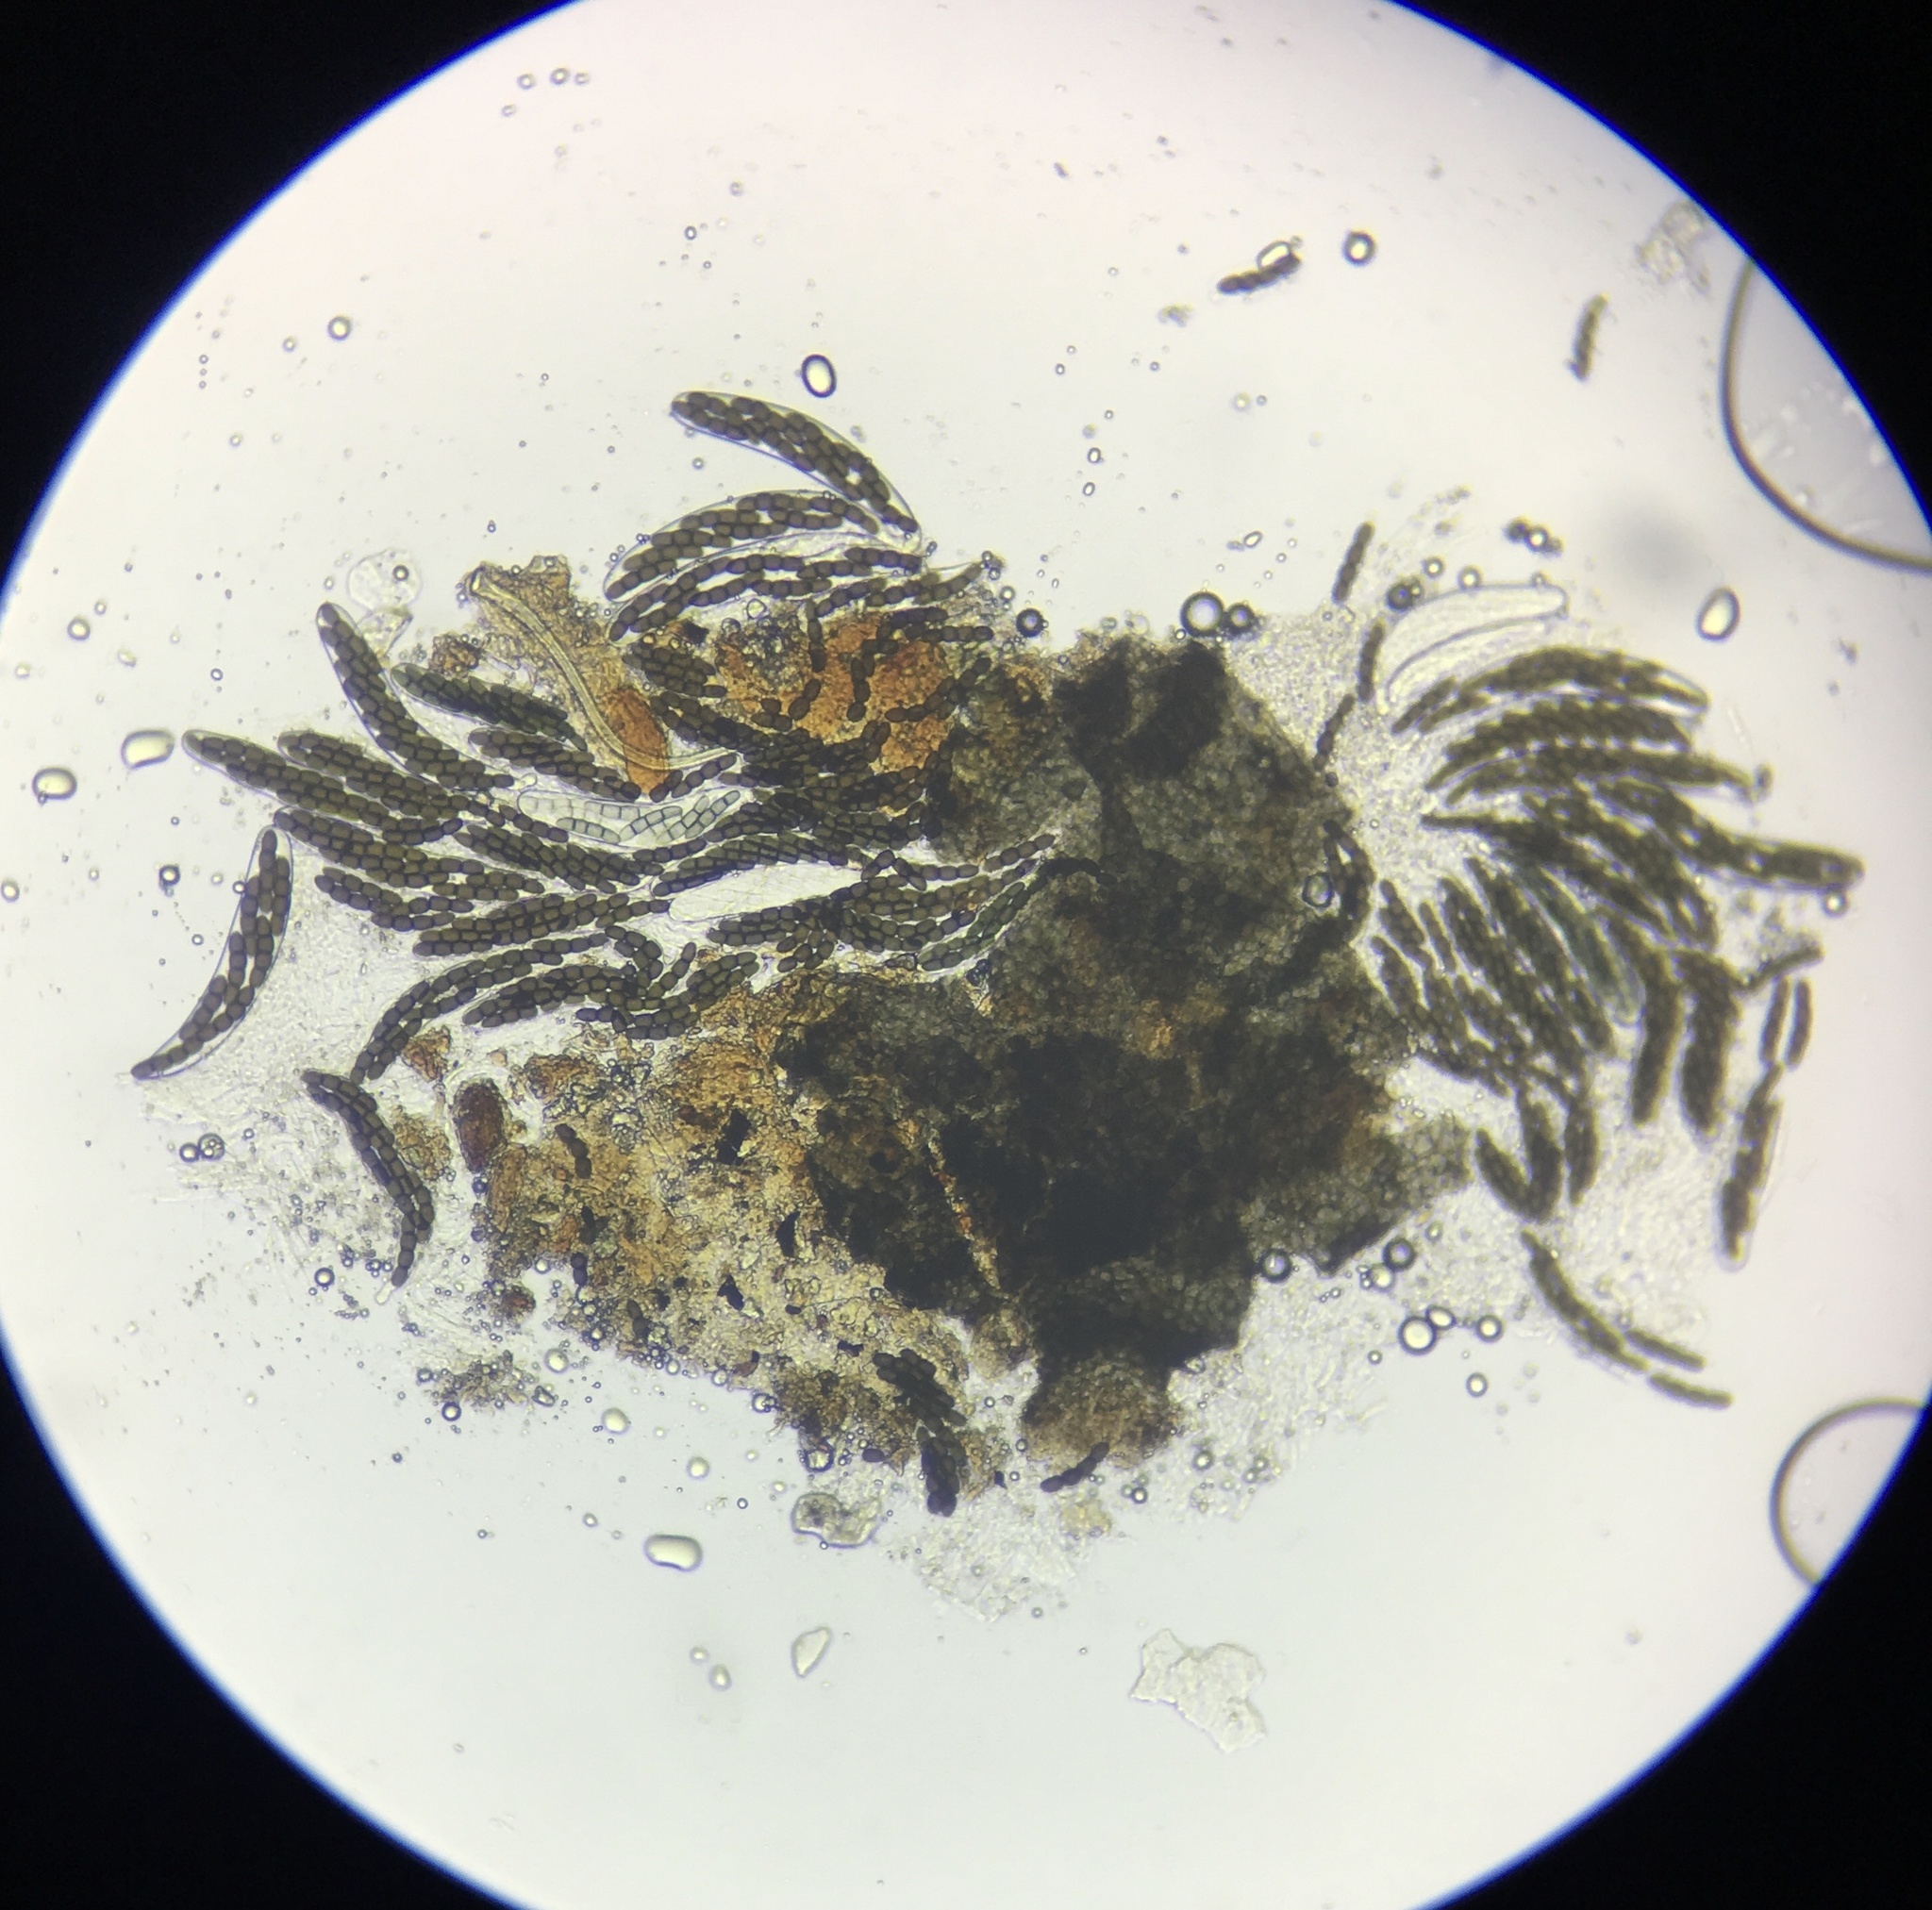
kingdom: Fungi
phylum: Ascomycota
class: Dothideomycetes
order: Pleosporales
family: Sporormiaceae
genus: Sporormiella
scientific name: Sporormiella australis
